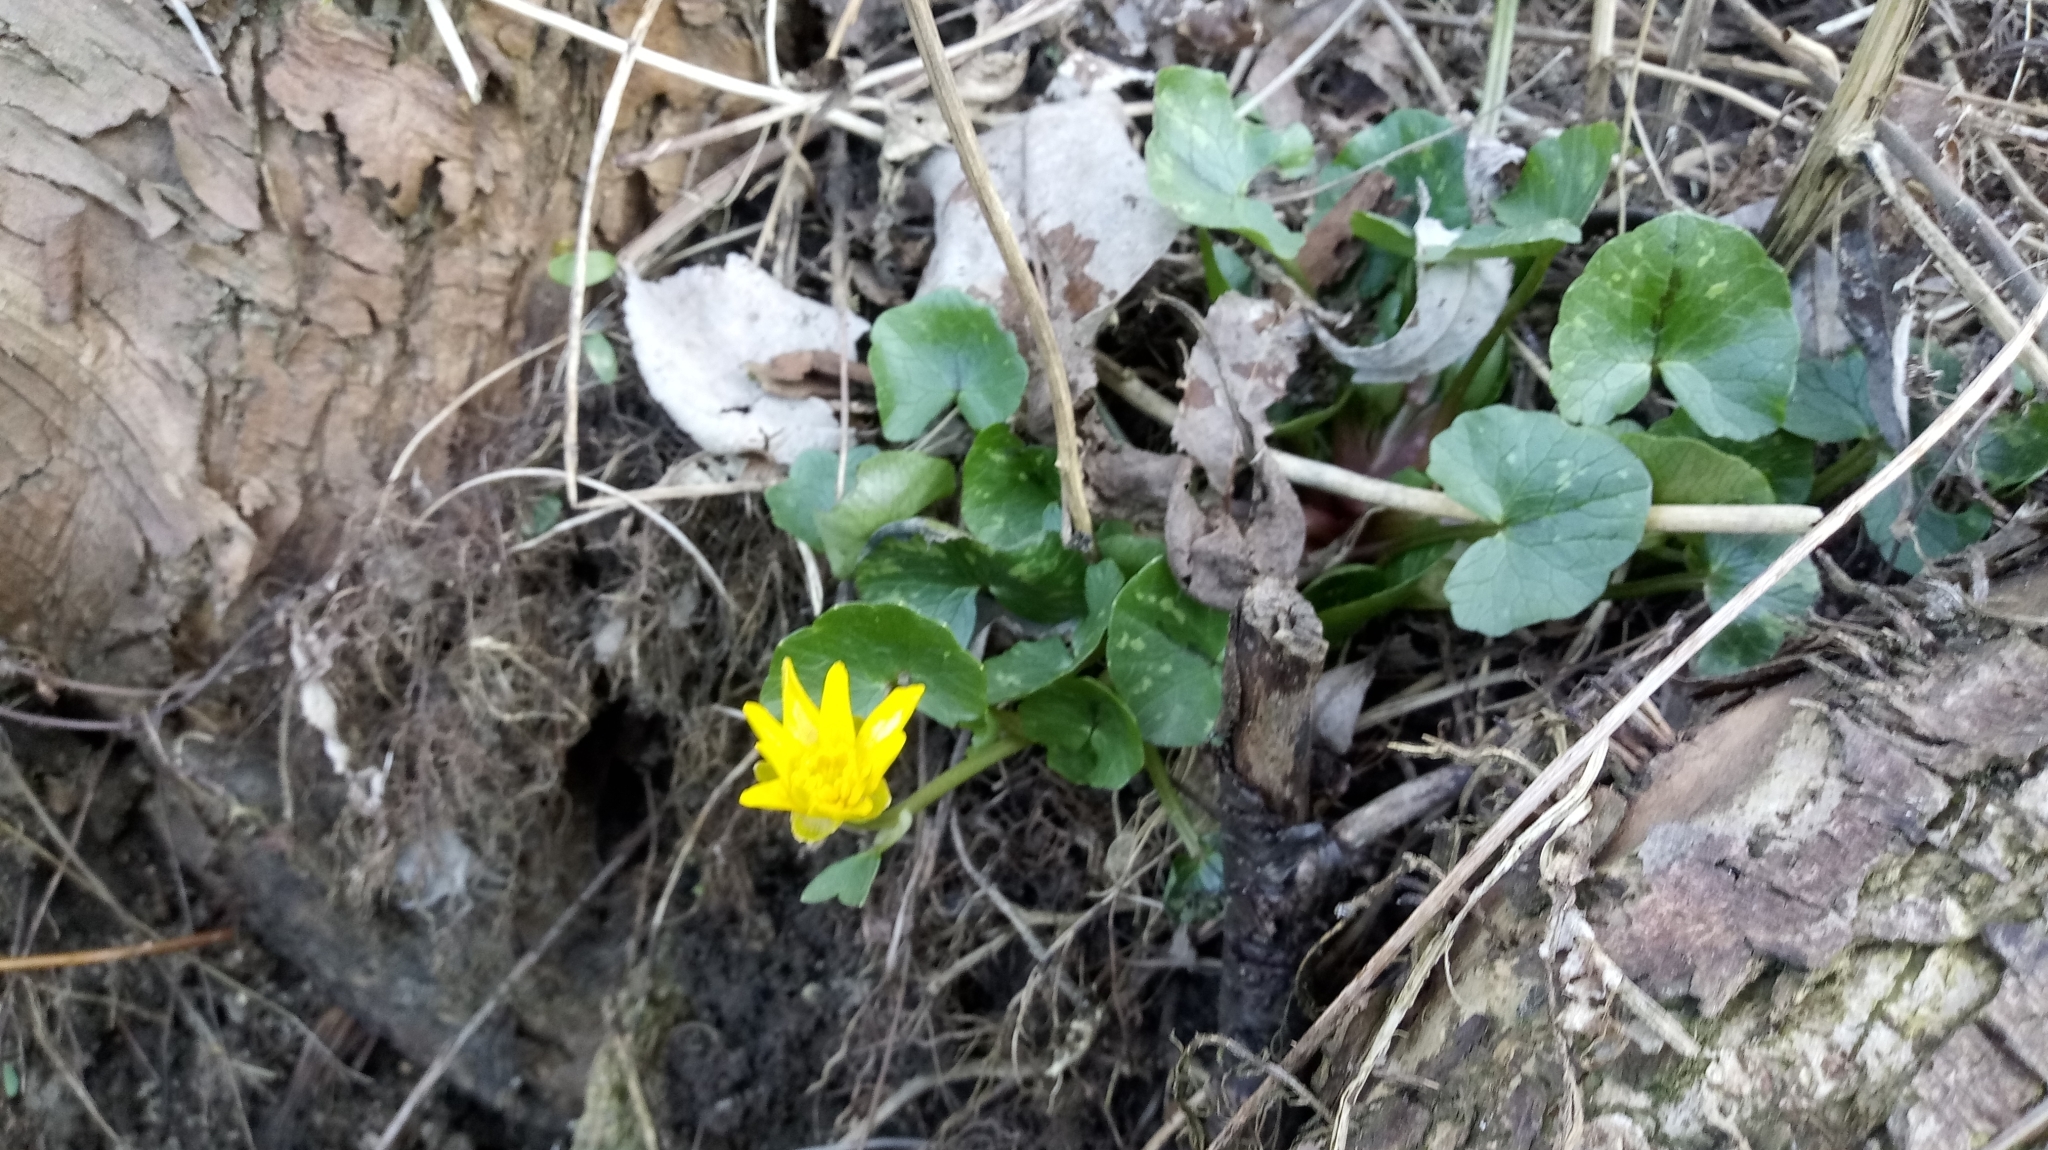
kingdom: Plantae
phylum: Tracheophyta
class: Magnoliopsida
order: Ranunculales
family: Ranunculaceae
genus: Ficaria
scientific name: Ficaria verna
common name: Lesser celandine
